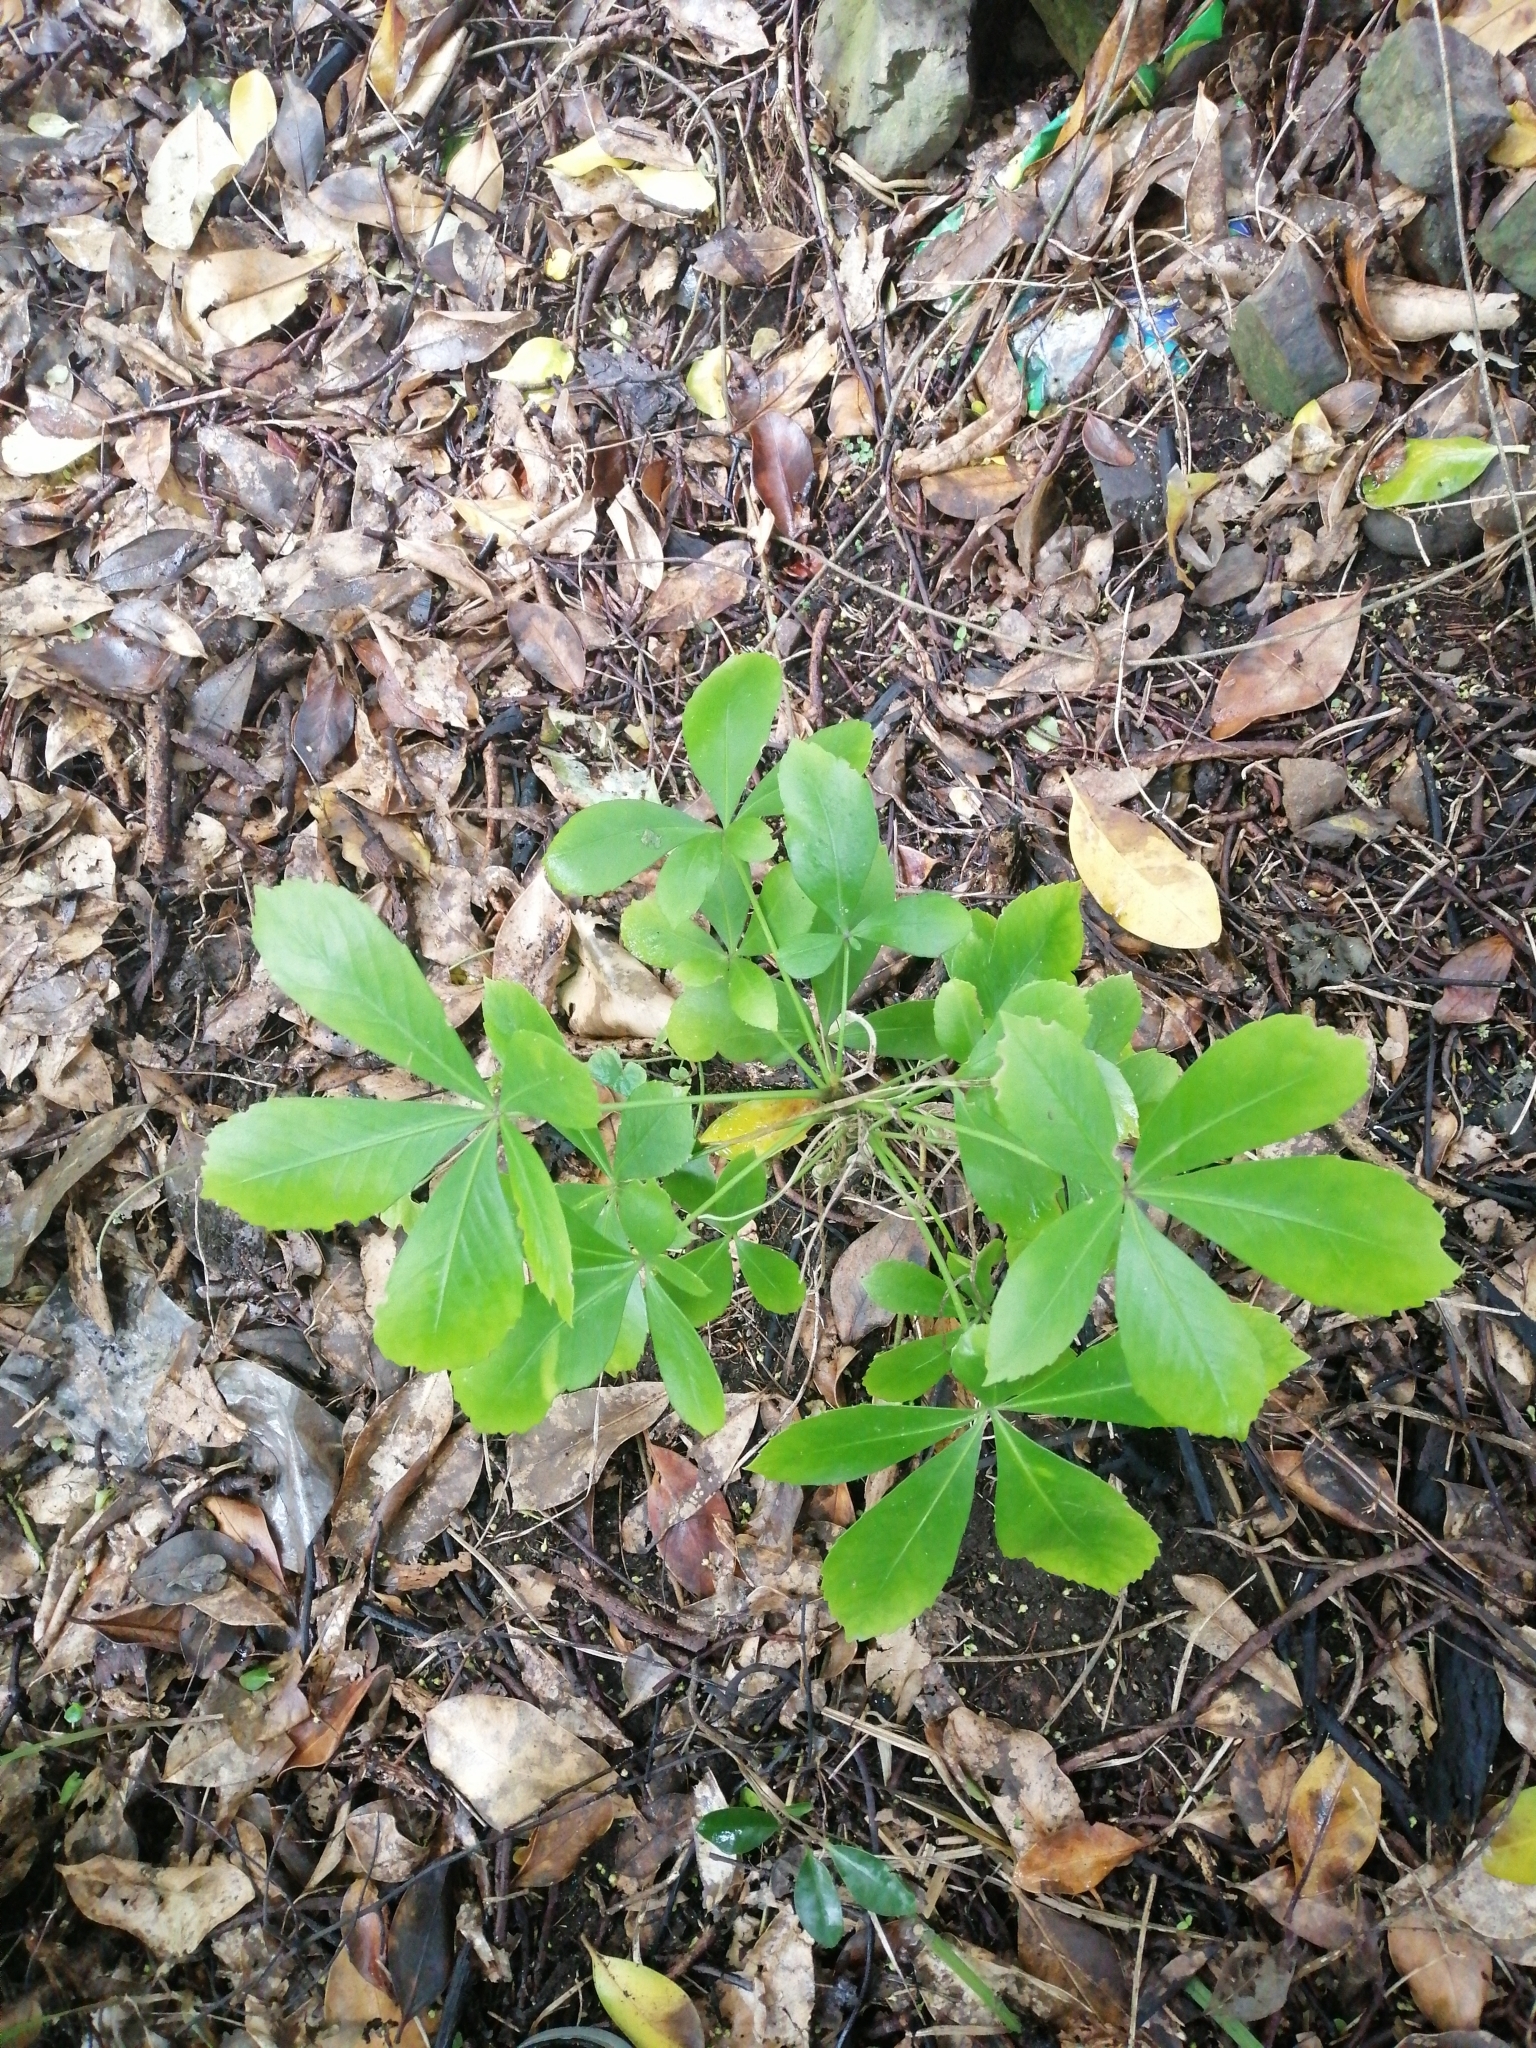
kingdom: Plantae
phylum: Tracheophyta
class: Magnoliopsida
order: Apiales
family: Araliaceae
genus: Pseudopanax
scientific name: Pseudopanax lessonii
